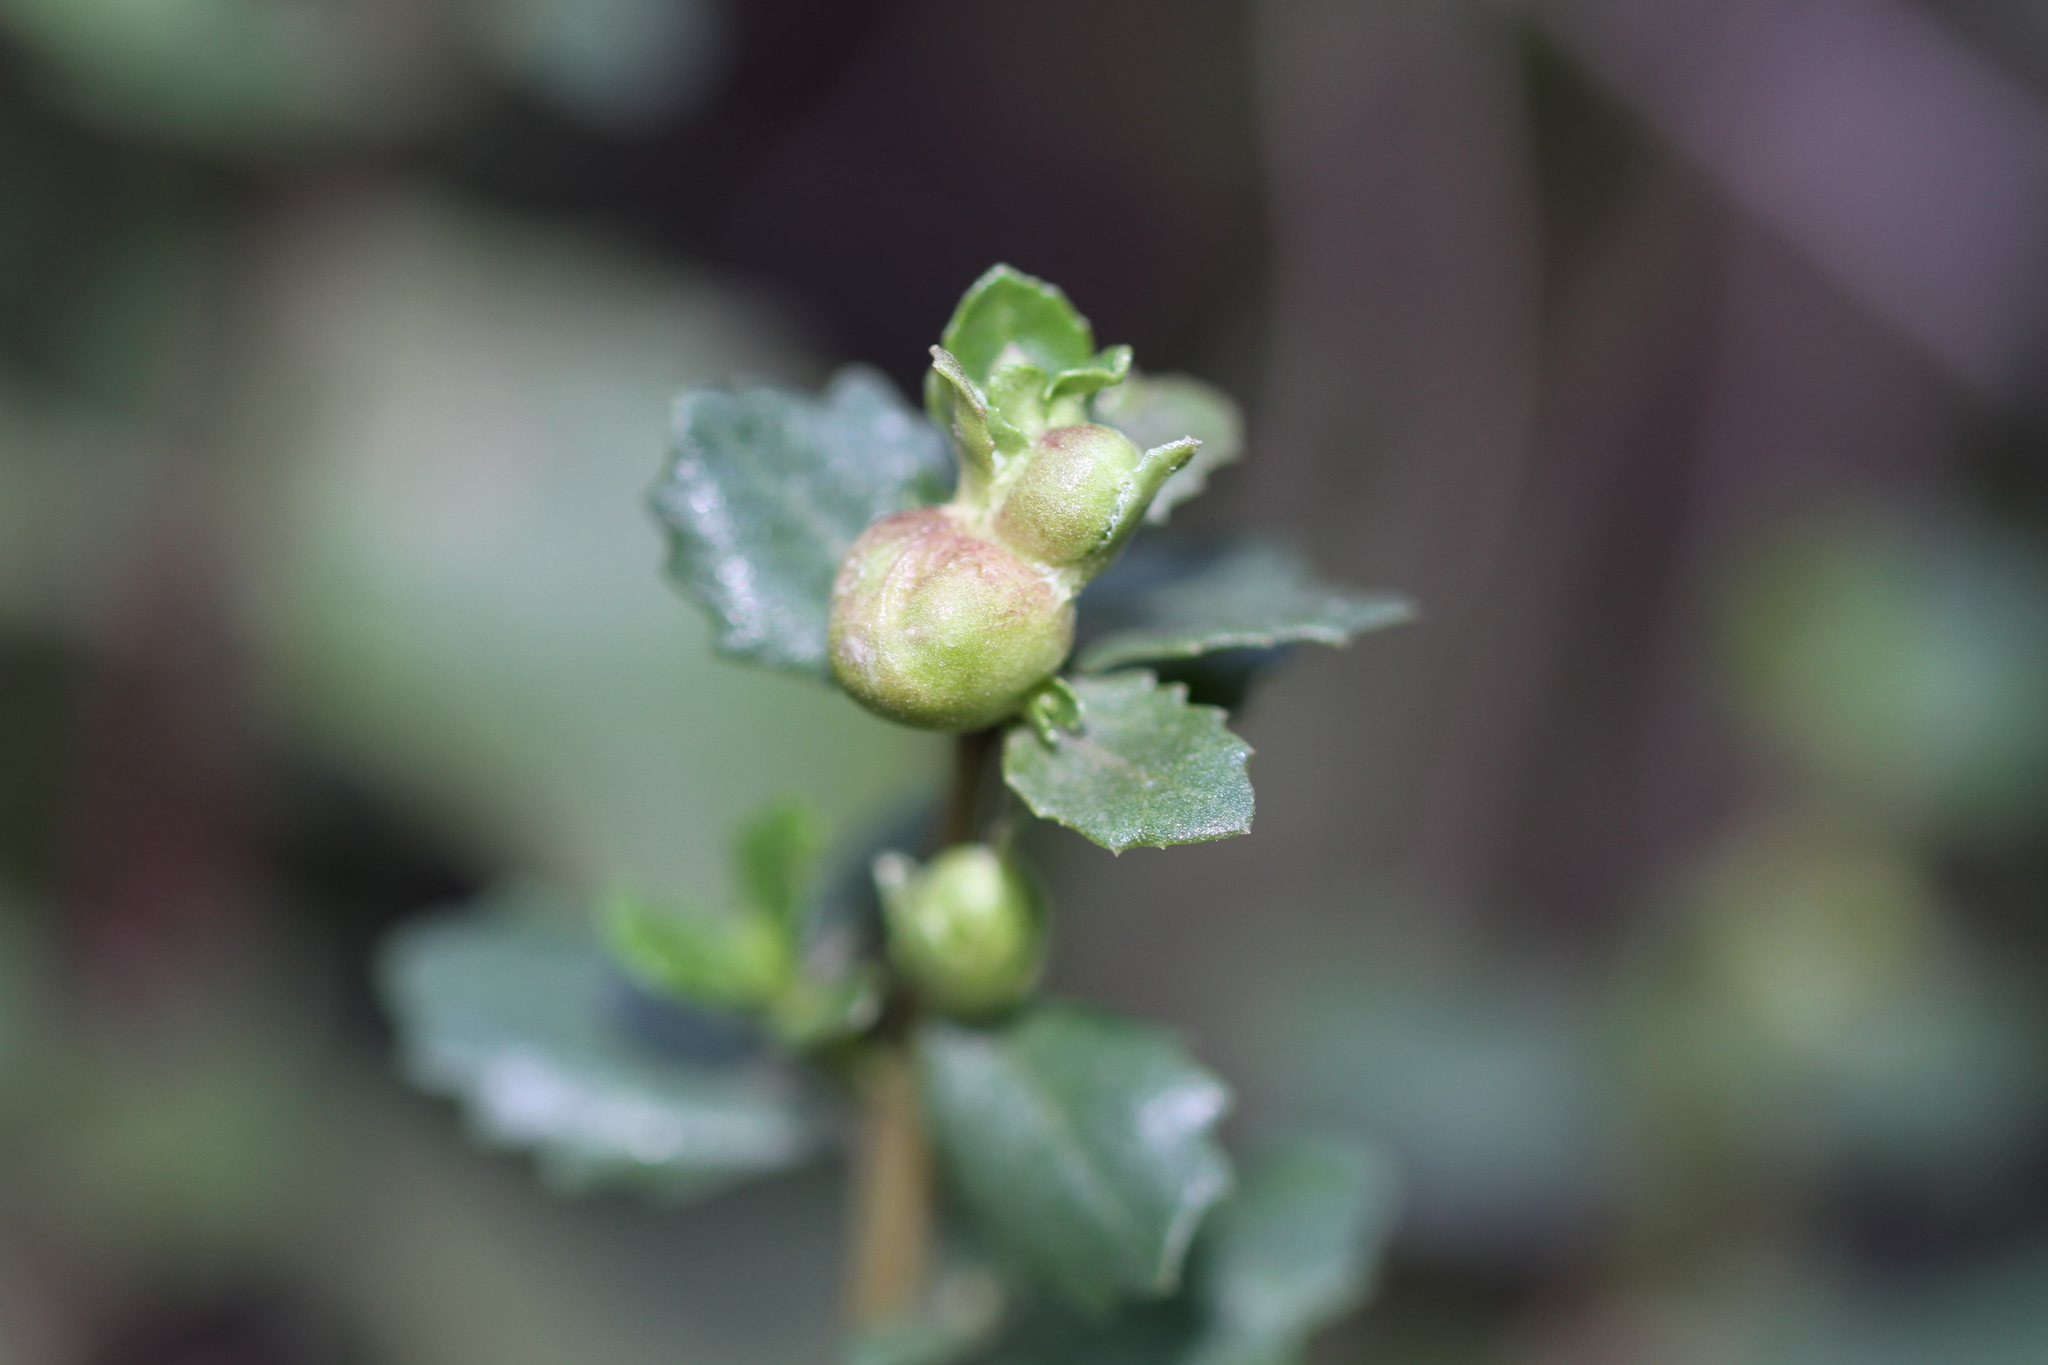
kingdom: Animalia
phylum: Arthropoda
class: Insecta
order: Diptera
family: Cecidomyiidae
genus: Rhopalomyia
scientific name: Rhopalomyia californica
